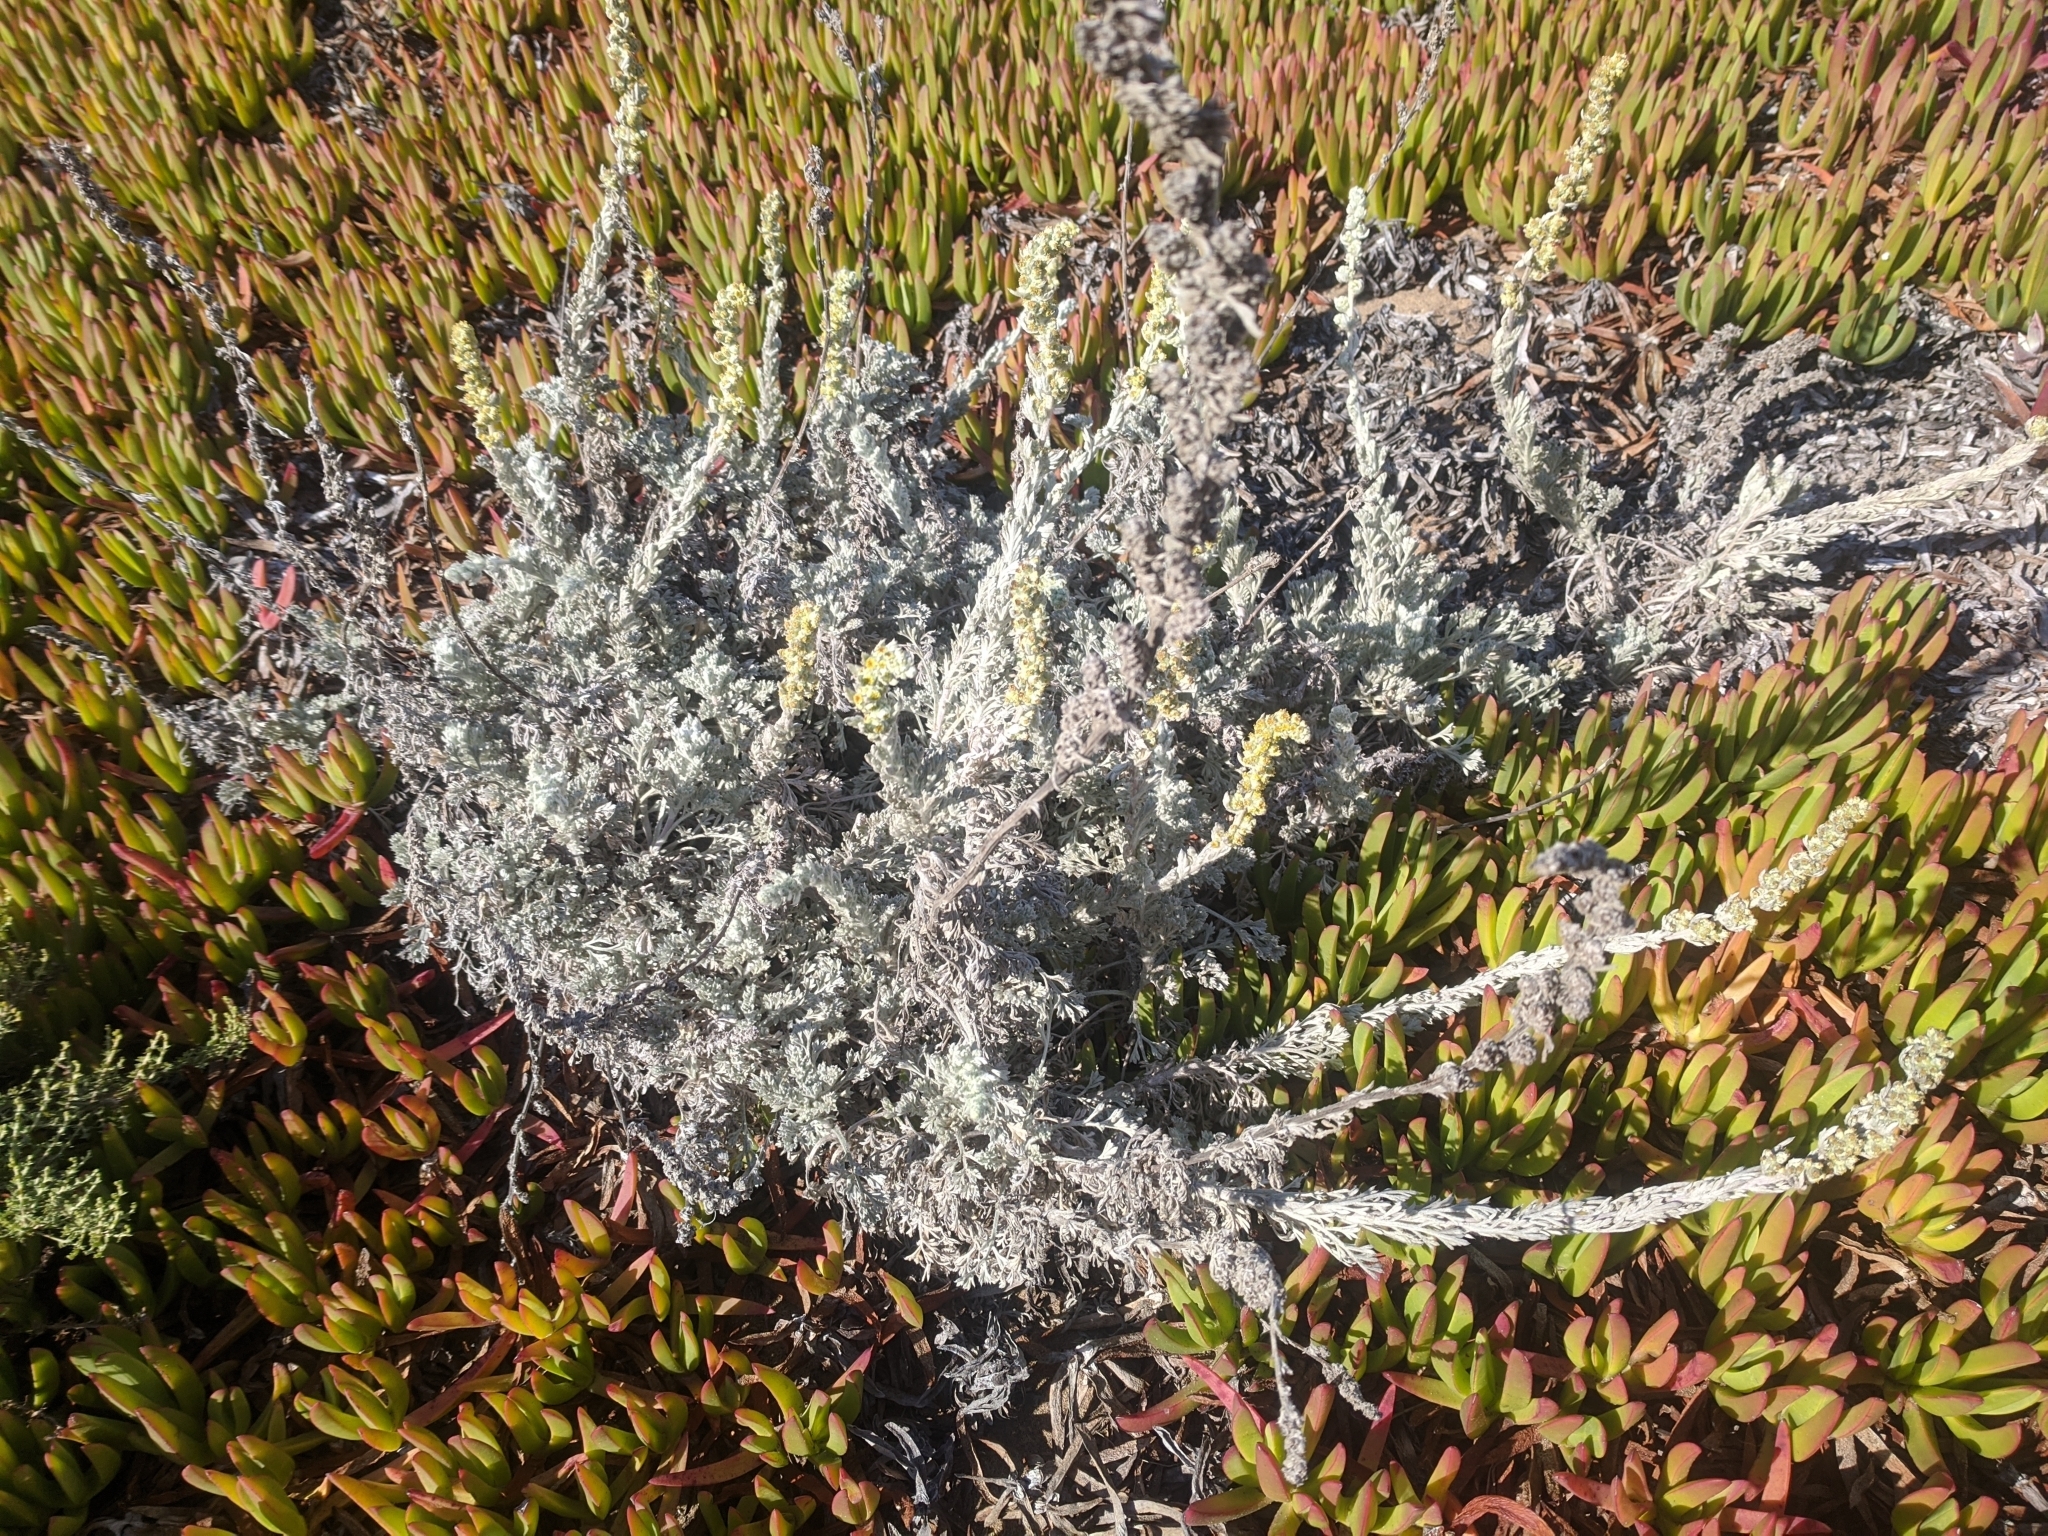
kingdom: Plantae
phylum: Tracheophyta
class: Magnoliopsida
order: Asterales
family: Asteraceae
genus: Artemisia
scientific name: Artemisia pycnocephala
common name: Coastal sagewort
